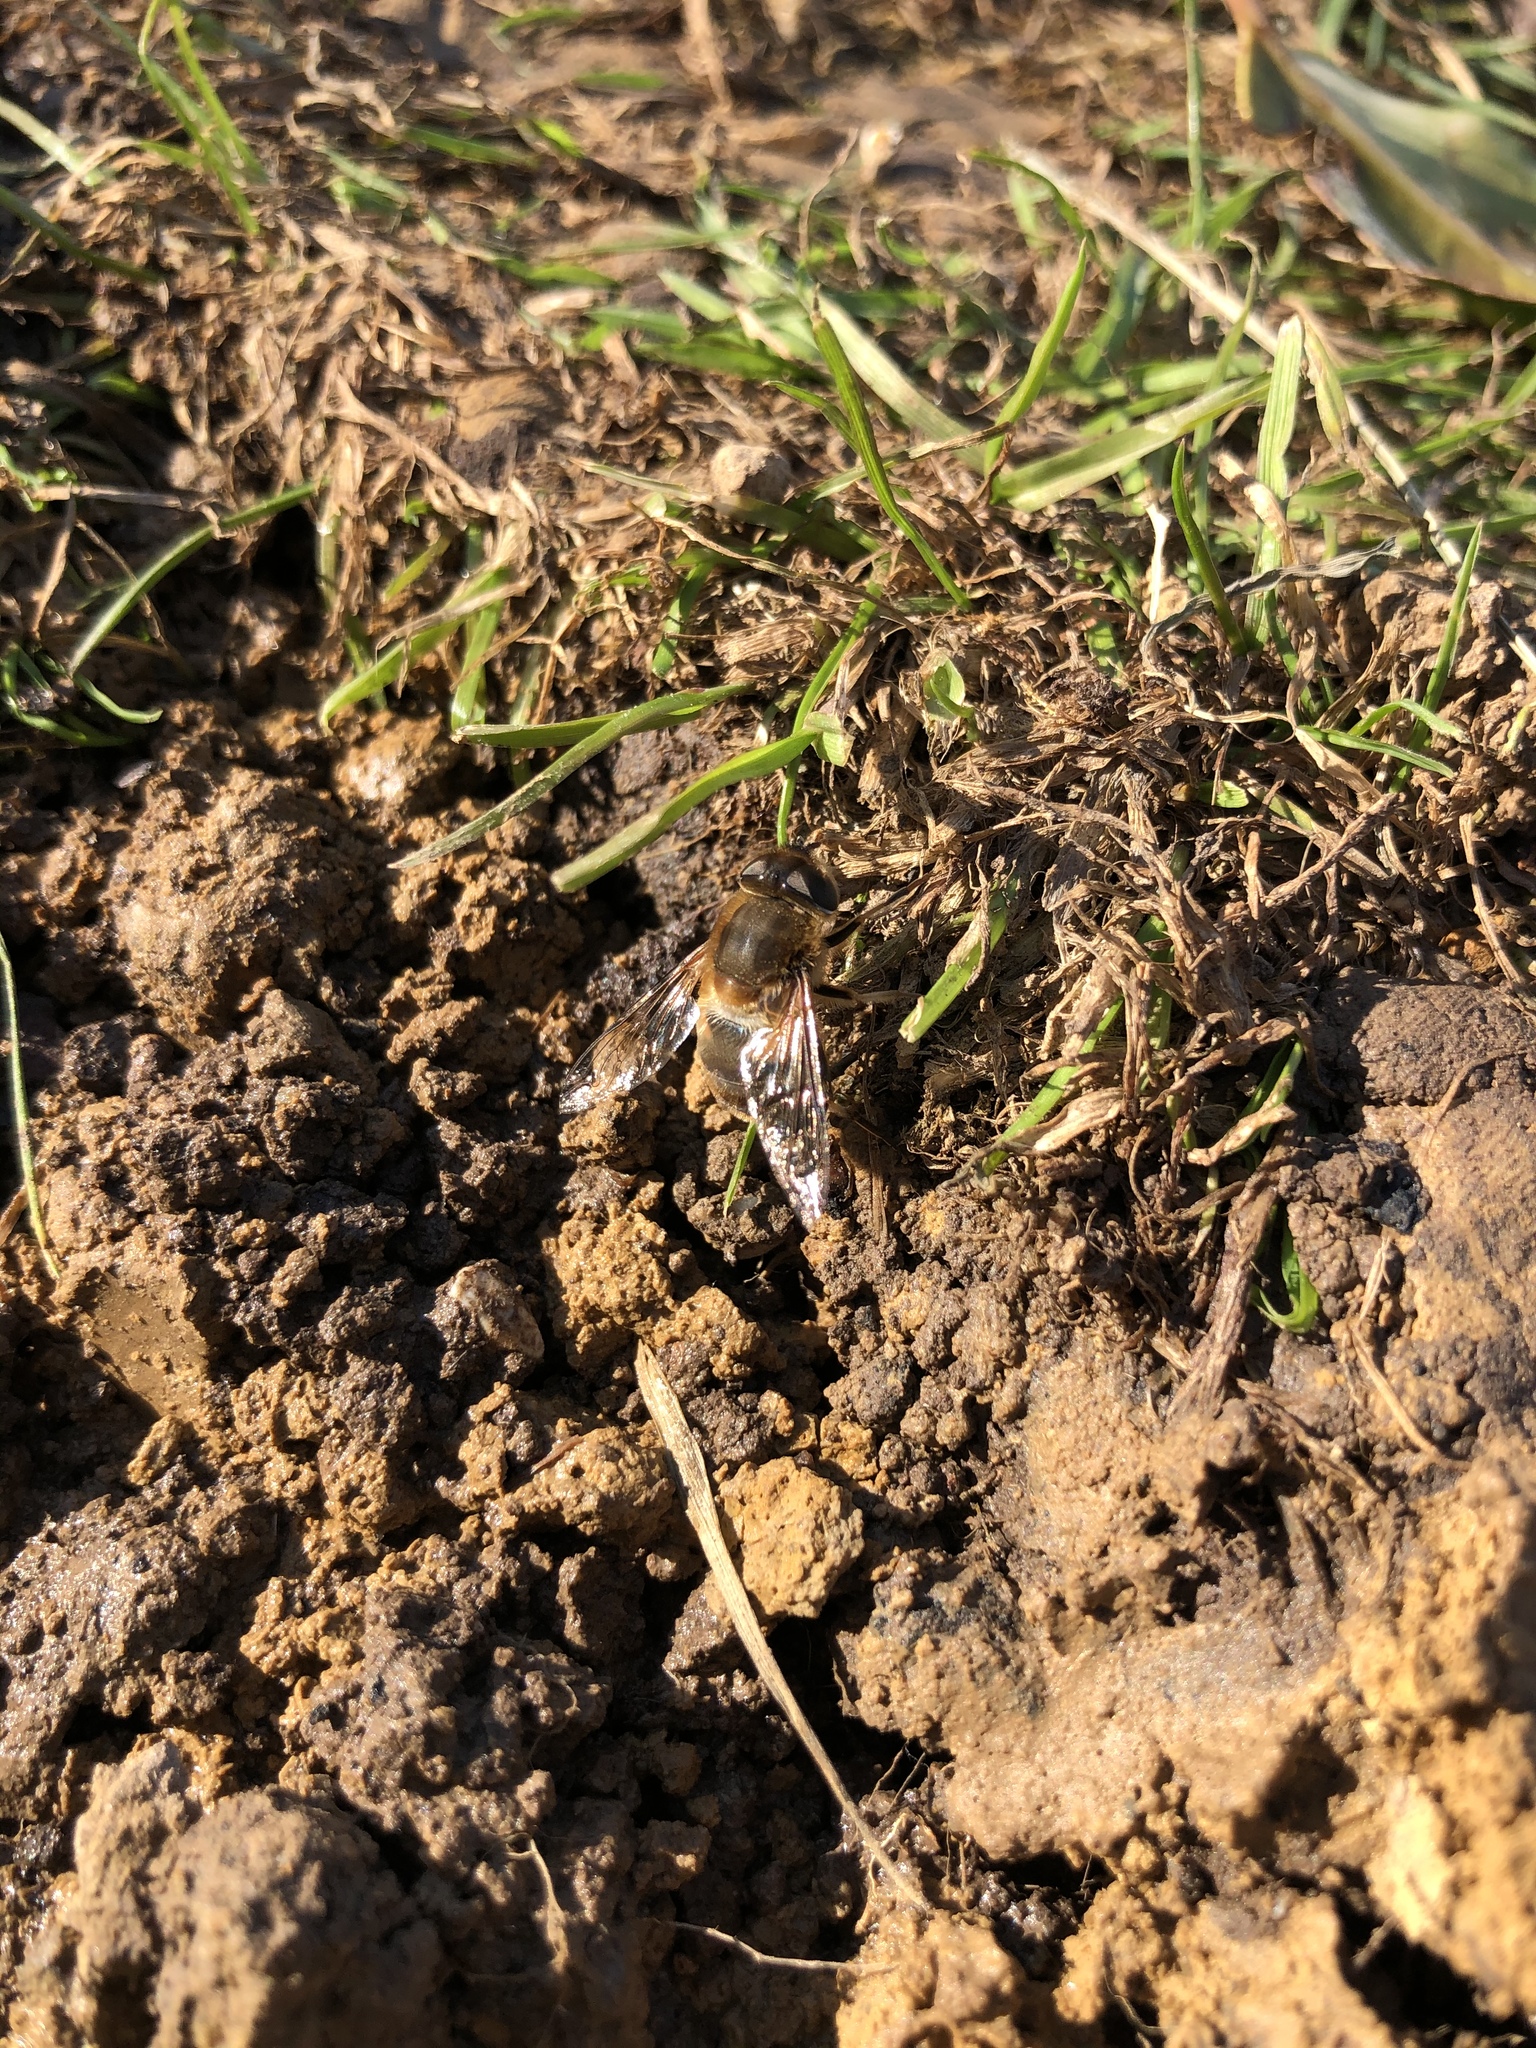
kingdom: Animalia
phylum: Arthropoda
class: Insecta
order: Diptera
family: Syrphidae
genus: Eristalis
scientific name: Eristalis pertinax
